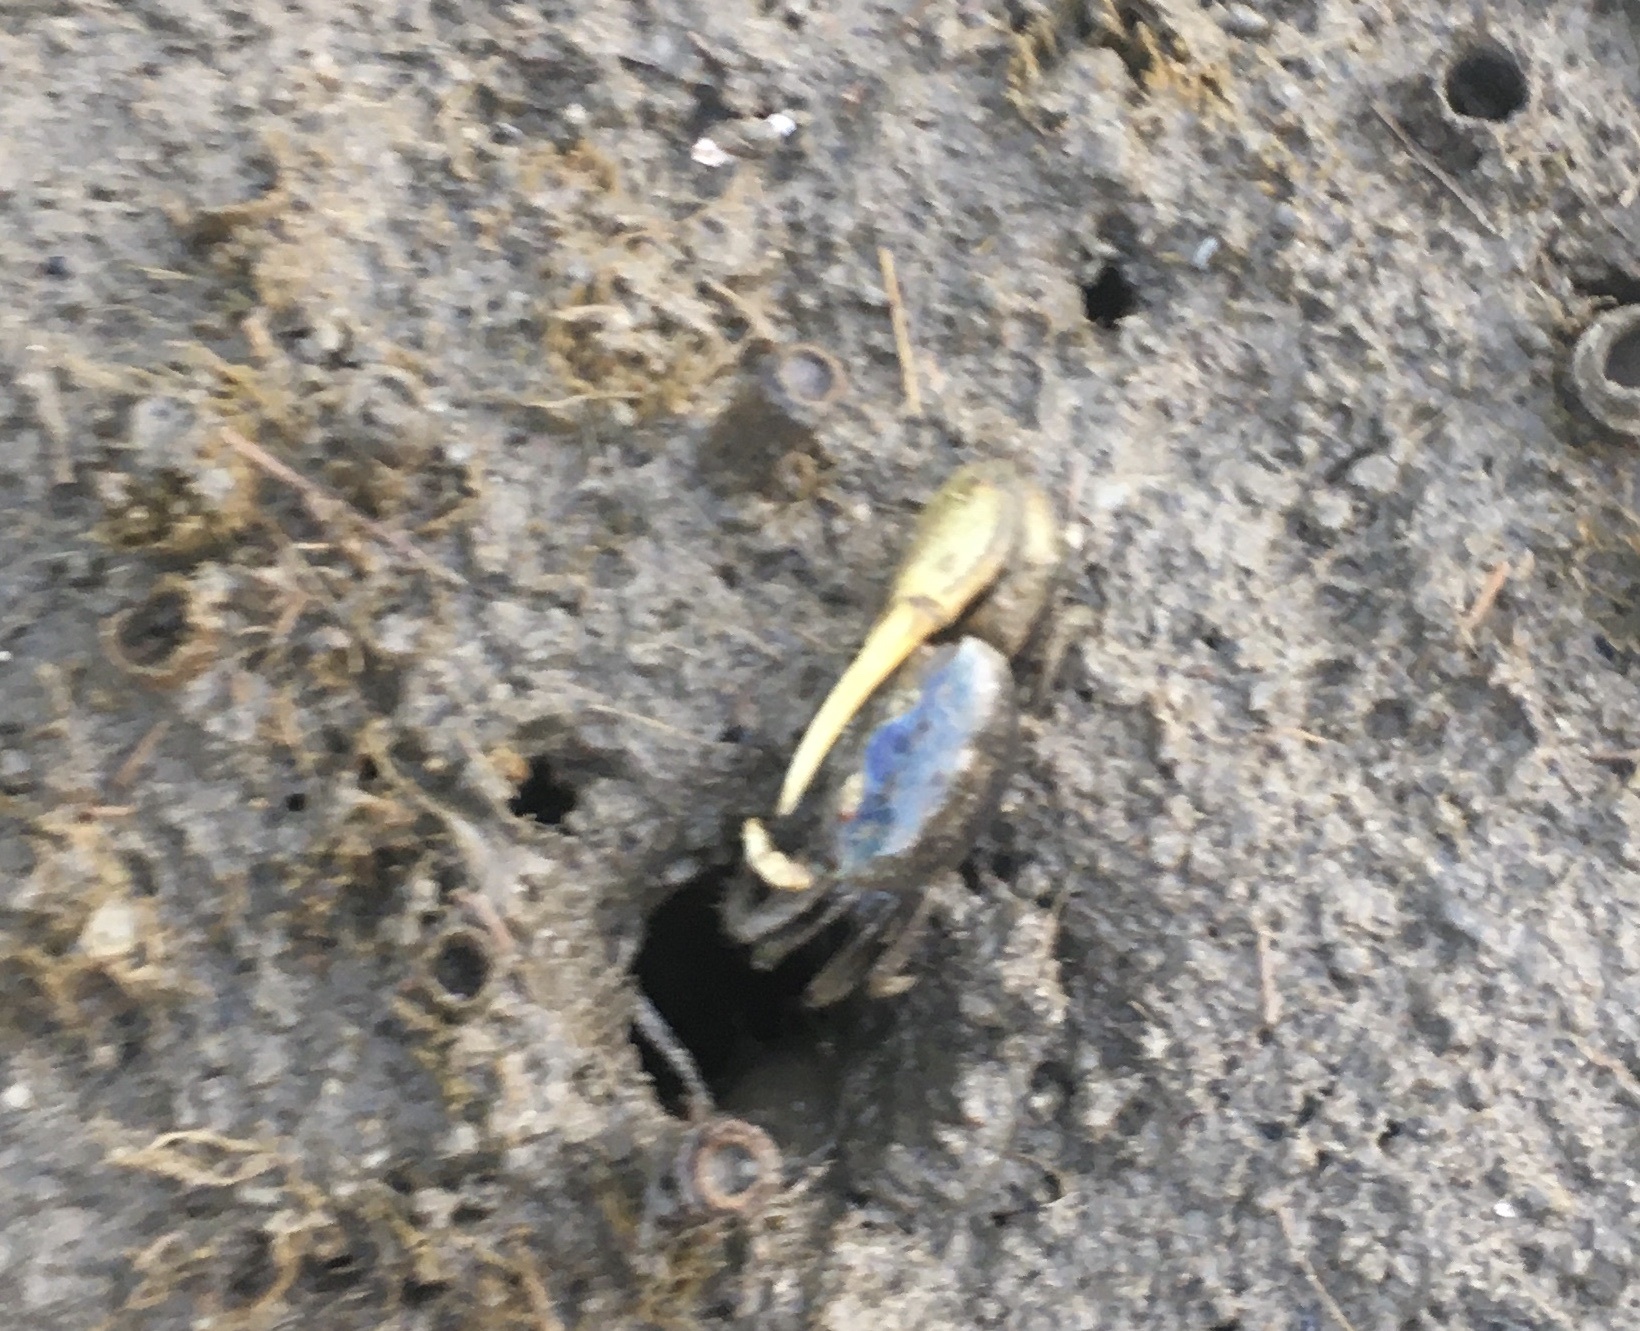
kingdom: Animalia
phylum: Arthropoda
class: Malacostraca
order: Decapoda
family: Ocypodidae
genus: Minuca
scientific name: Minuca pugnax
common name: Mud fiddler crab
